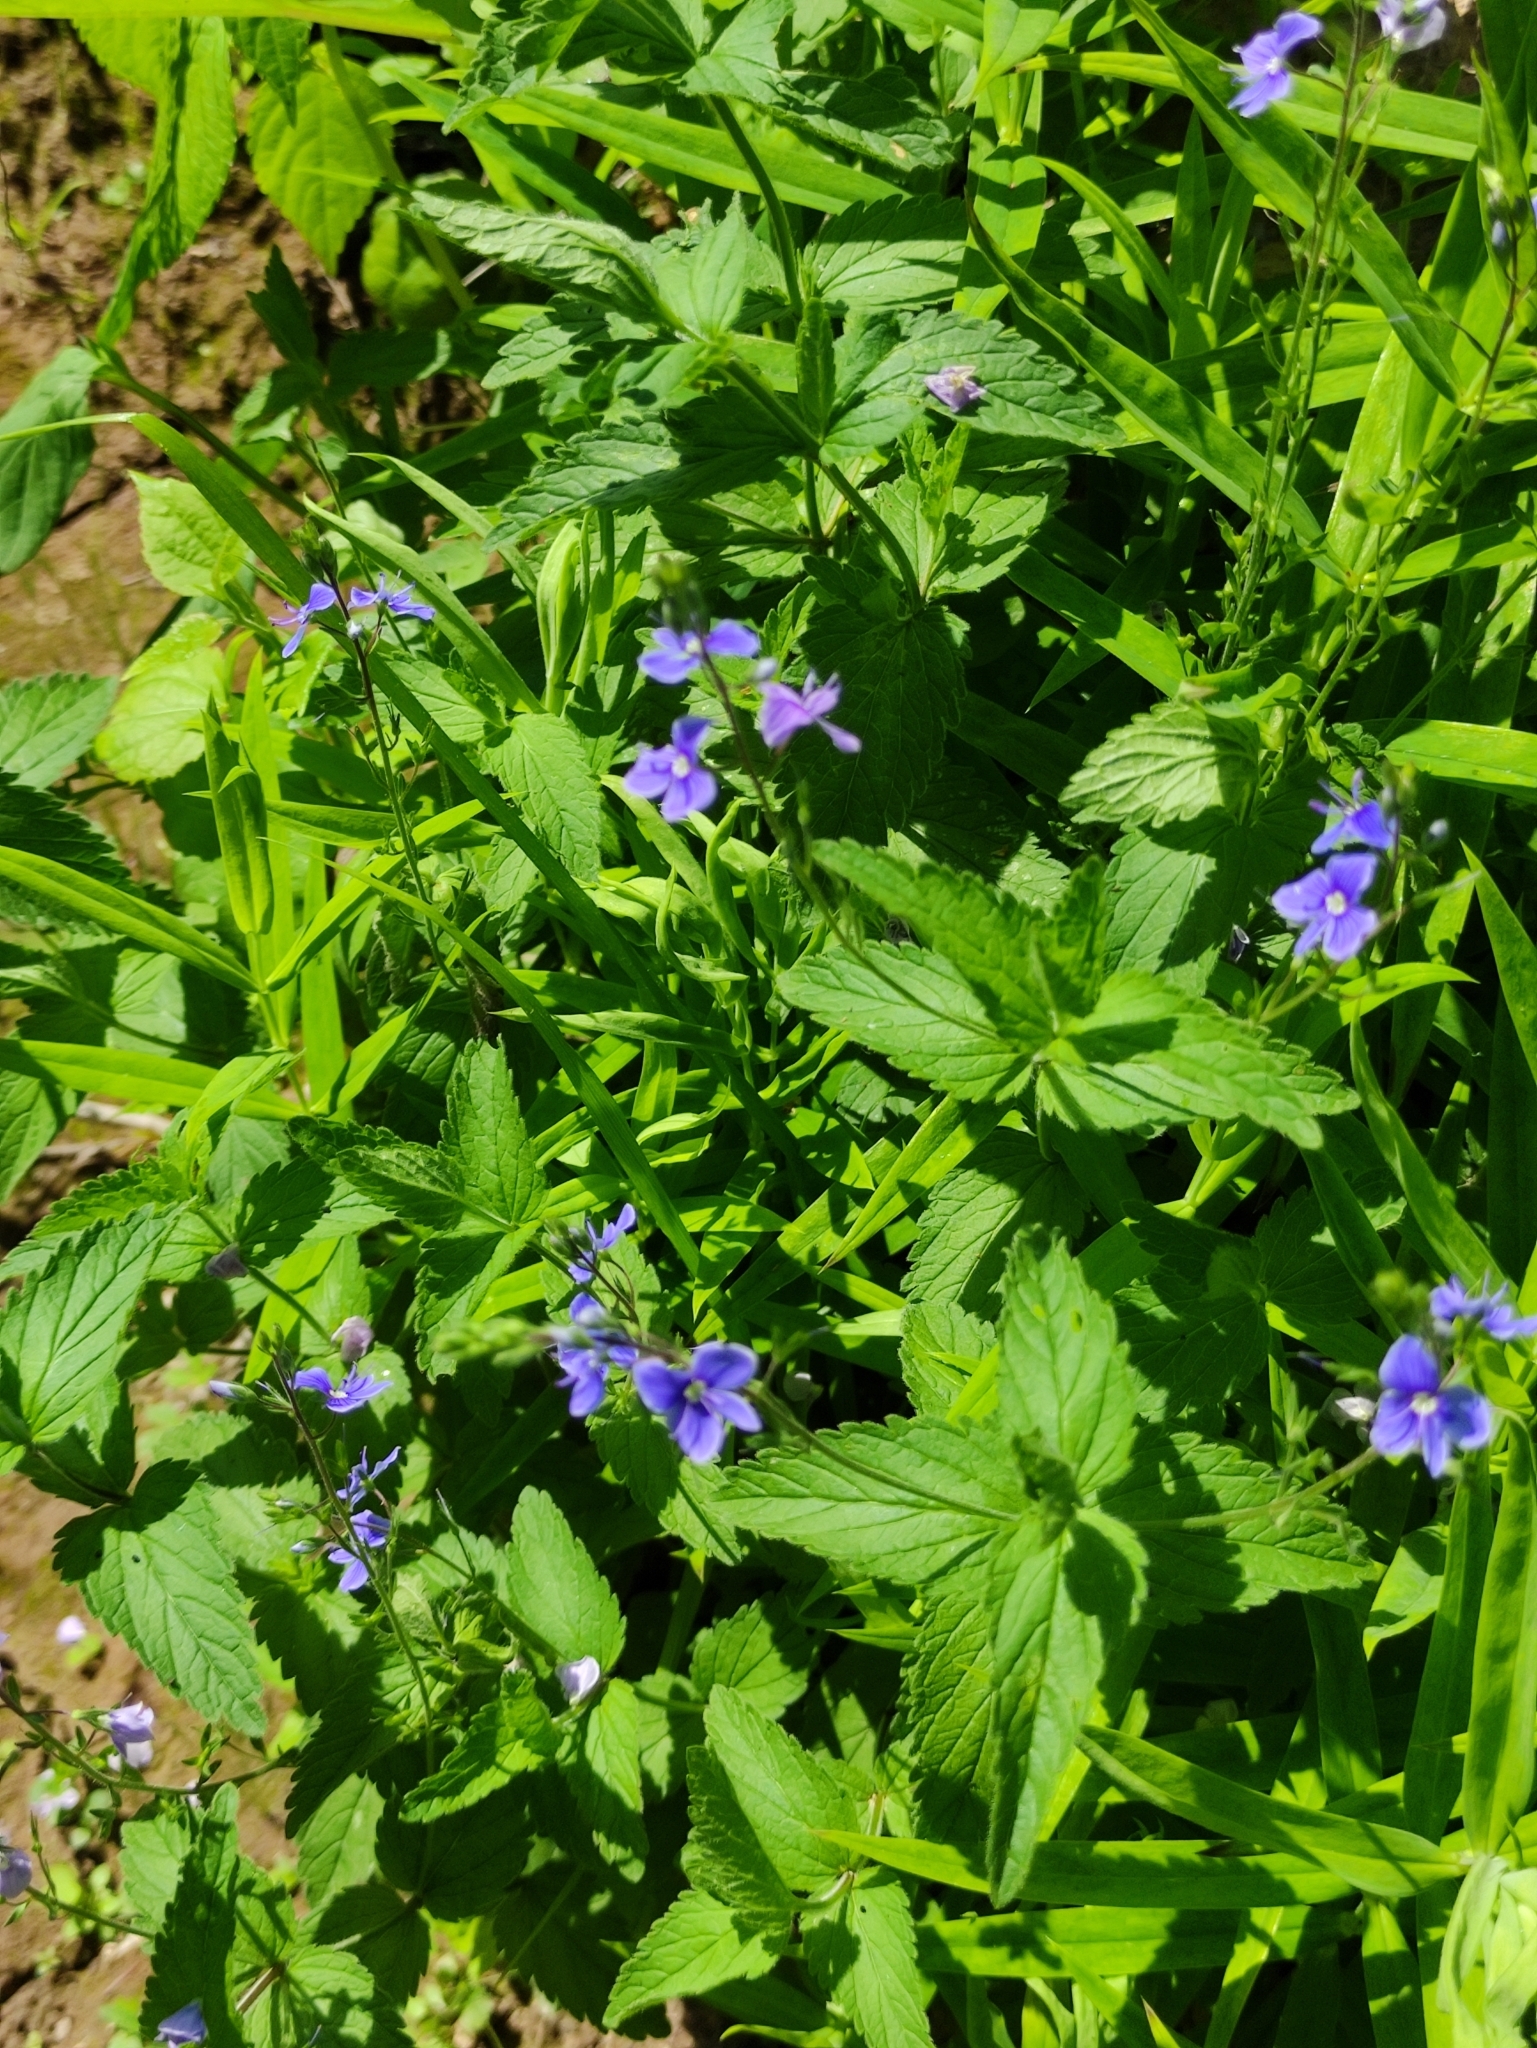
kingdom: Plantae
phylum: Tracheophyta
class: Magnoliopsida
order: Lamiales
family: Plantaginaceae
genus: Veronica
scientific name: Veronica chamaedrys
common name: Germander speedwell
